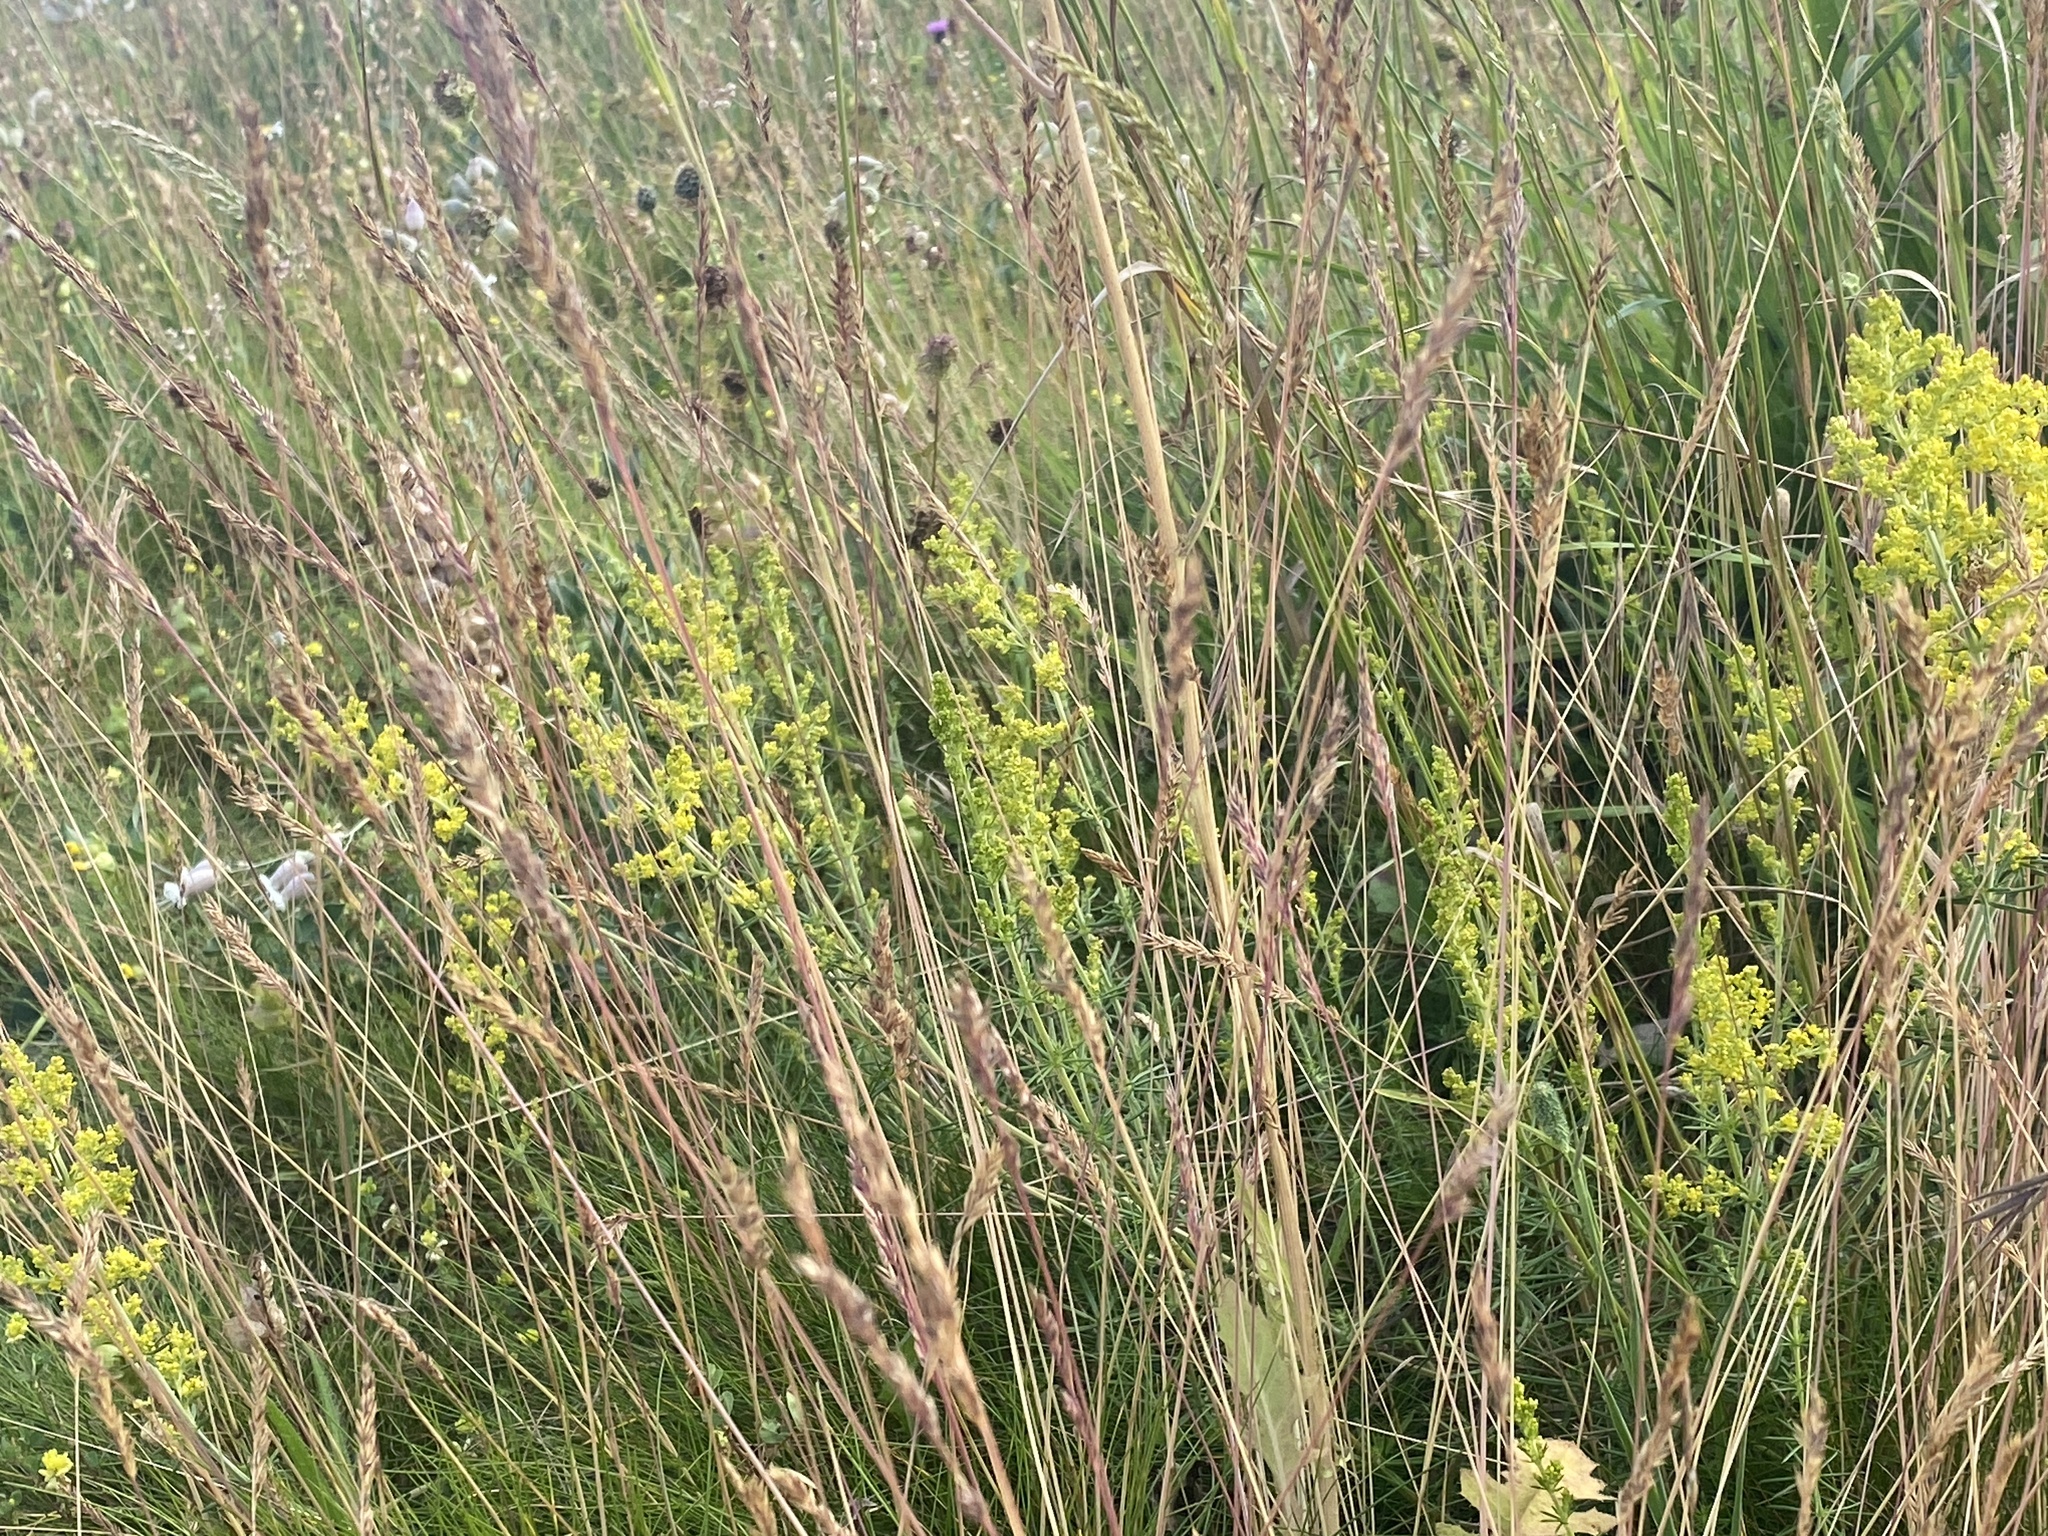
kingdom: Plantae
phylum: Tracheophyta
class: Magnoliopsida
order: Gentianales
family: Rubiaceae
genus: Galium
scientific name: Galium verum
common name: Lady's bedstraw
